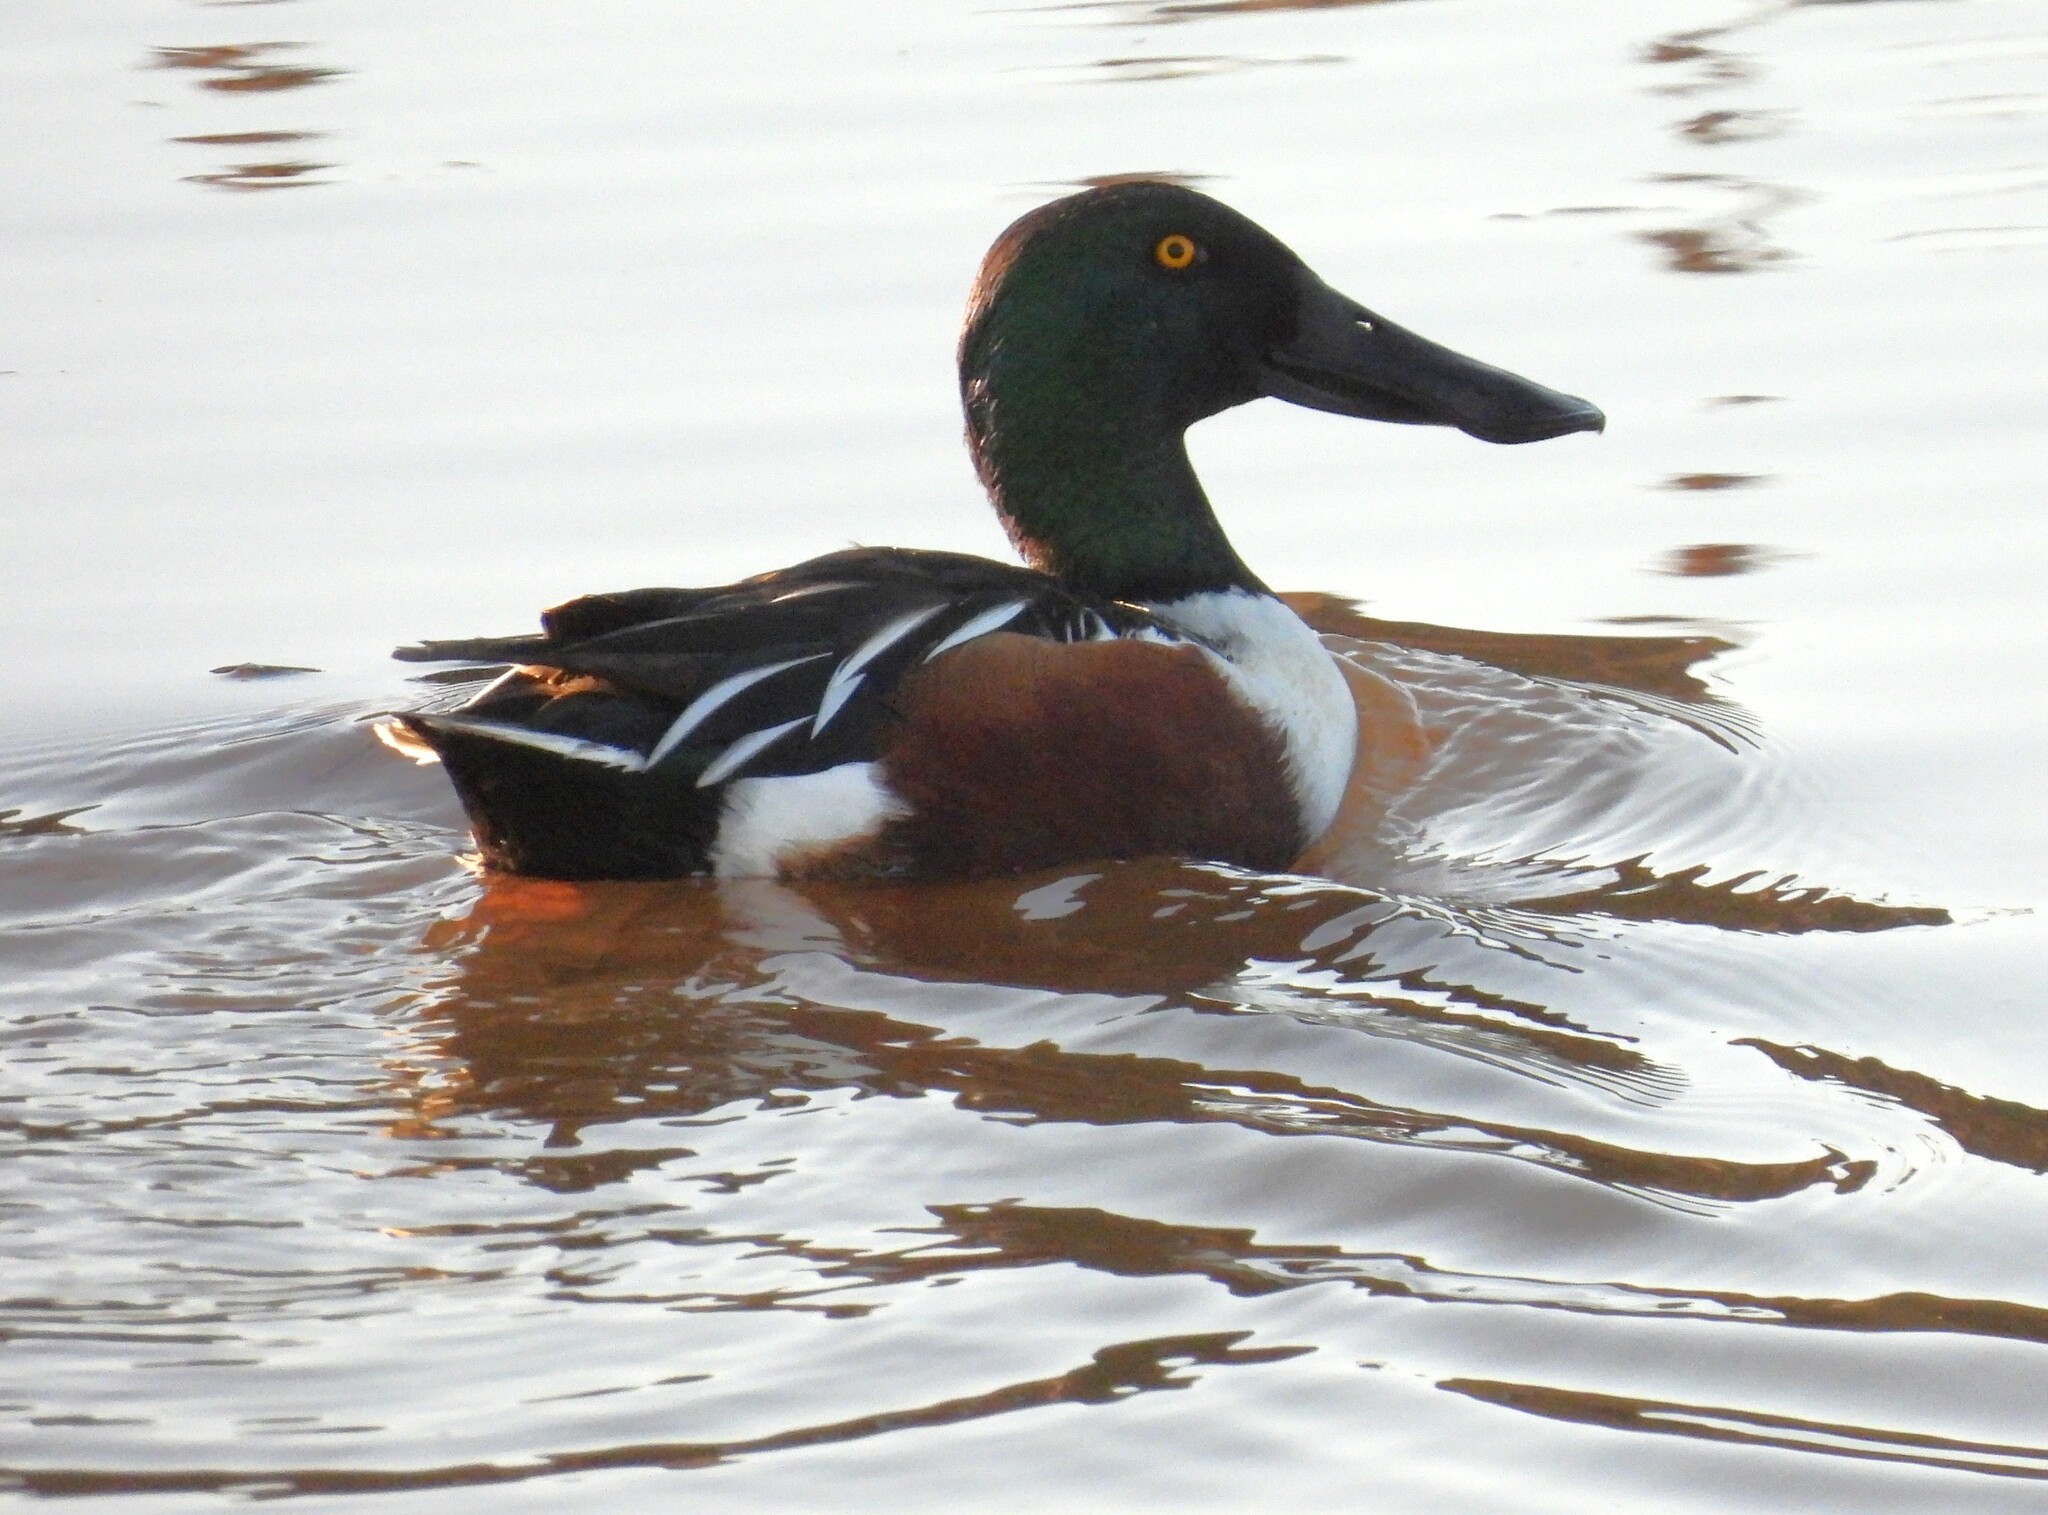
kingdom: Animalia
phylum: Chordata
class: Aves
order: Anseriformes
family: Anatidae
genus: Spatula
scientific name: Spatula clypeata
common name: Northern shoveler
